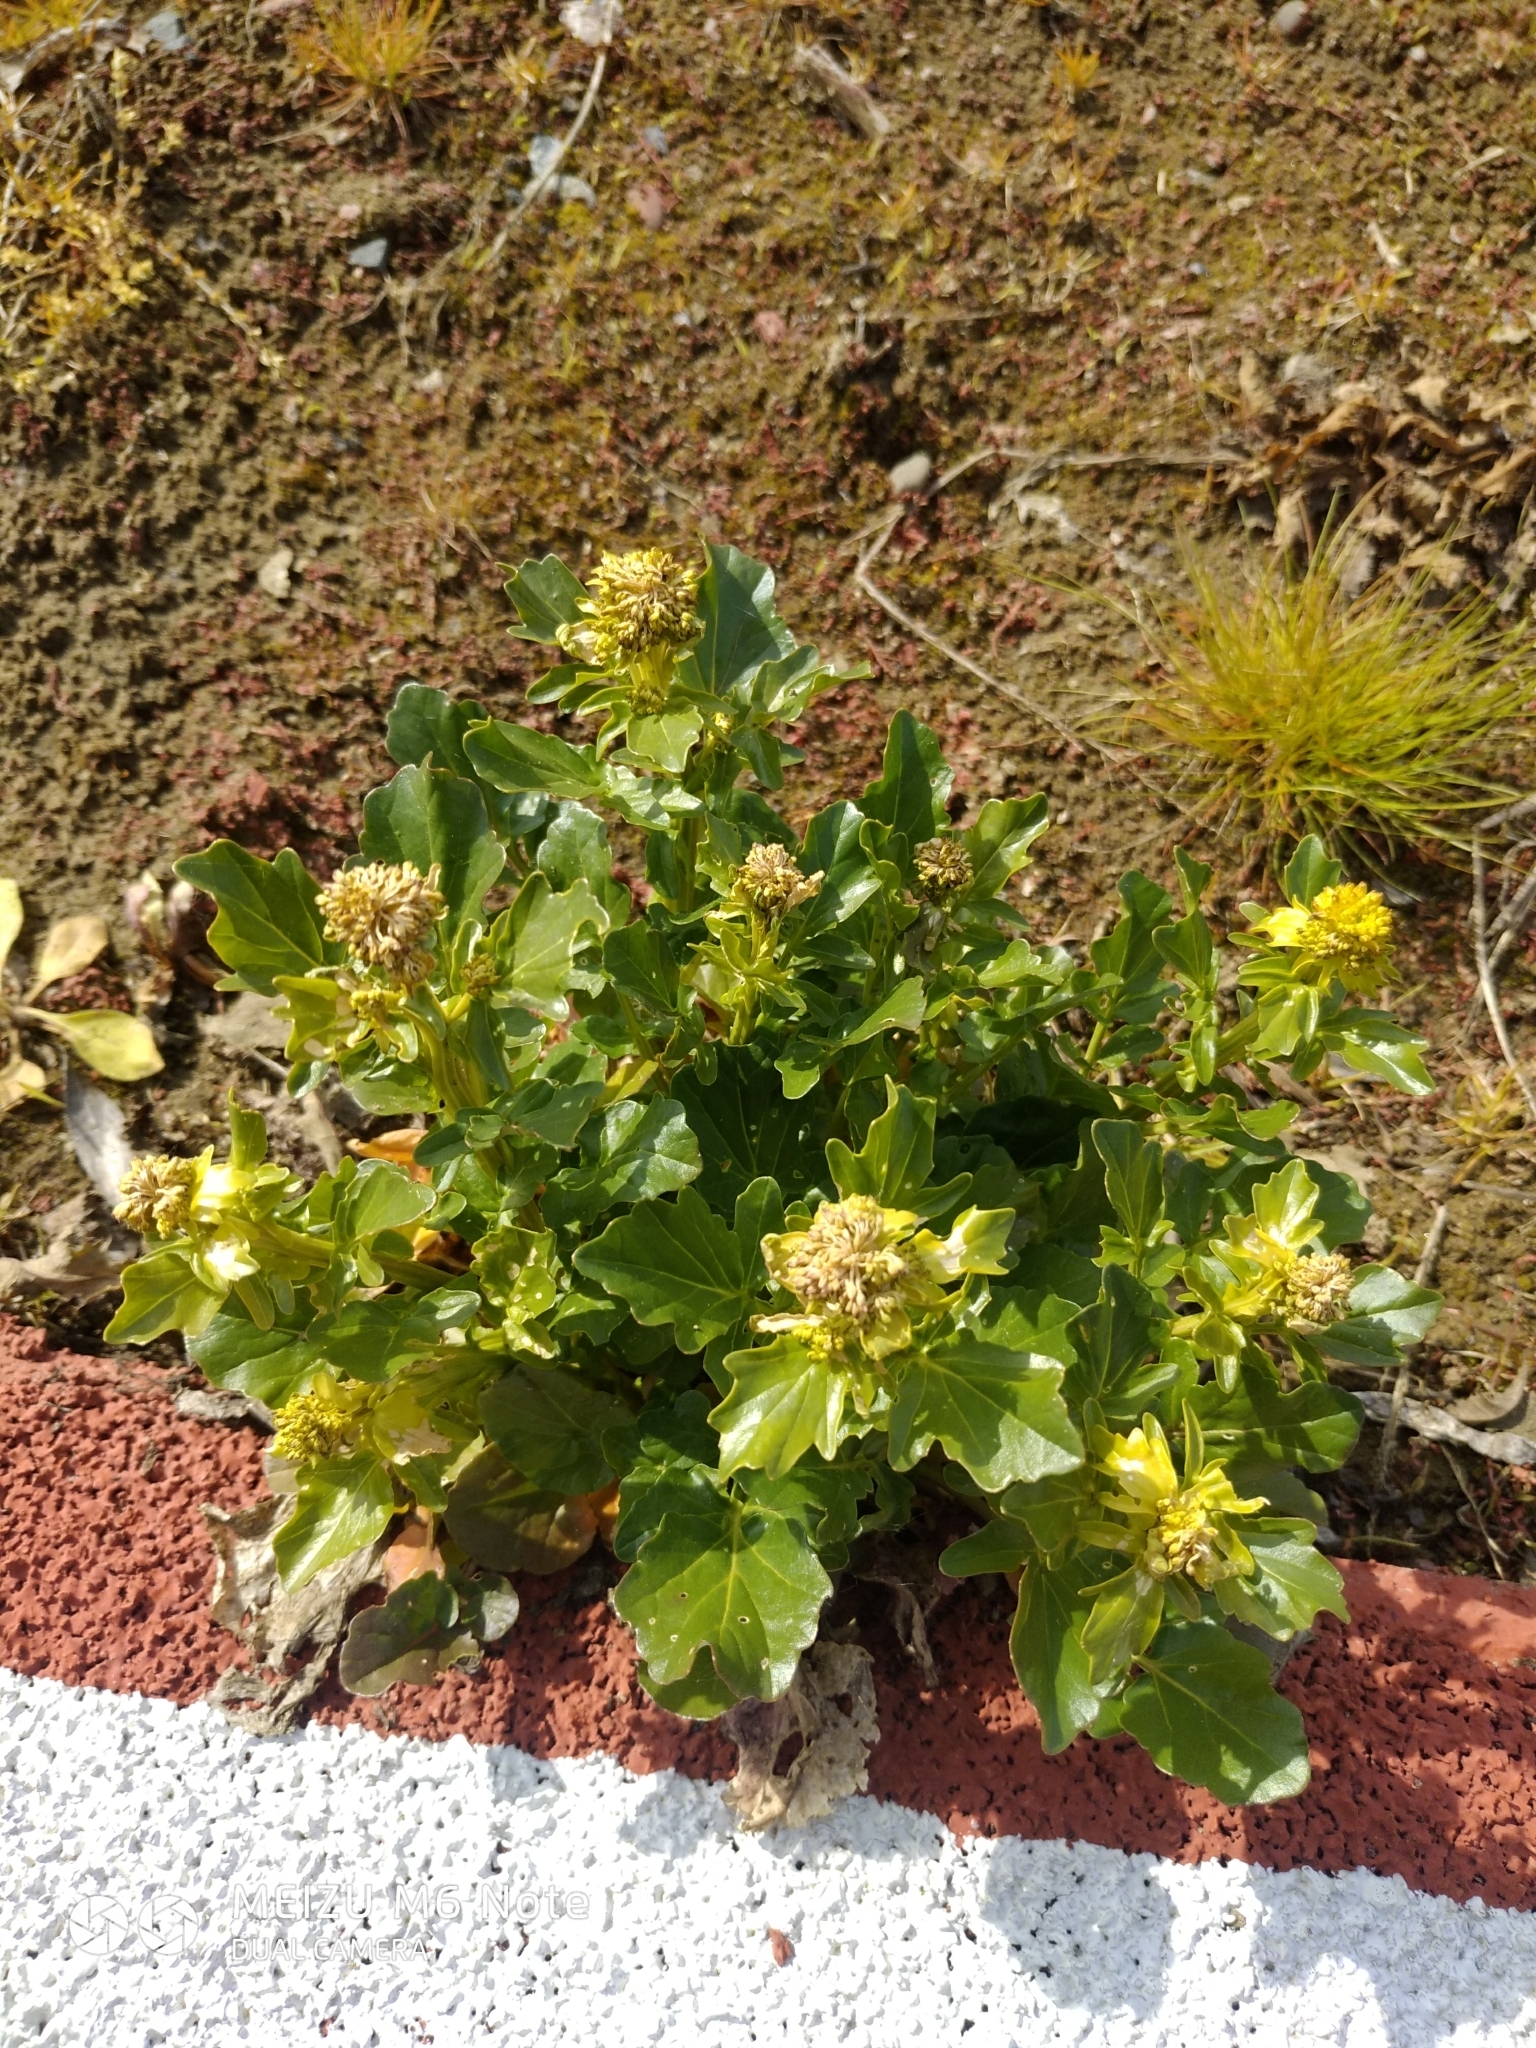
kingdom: Plantae
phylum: Tracheophyta
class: Magnoliopsida
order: Brassicales
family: Brassicaceae
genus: Barbarea
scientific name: Barbarea vulgaris
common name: Cressy-greens
